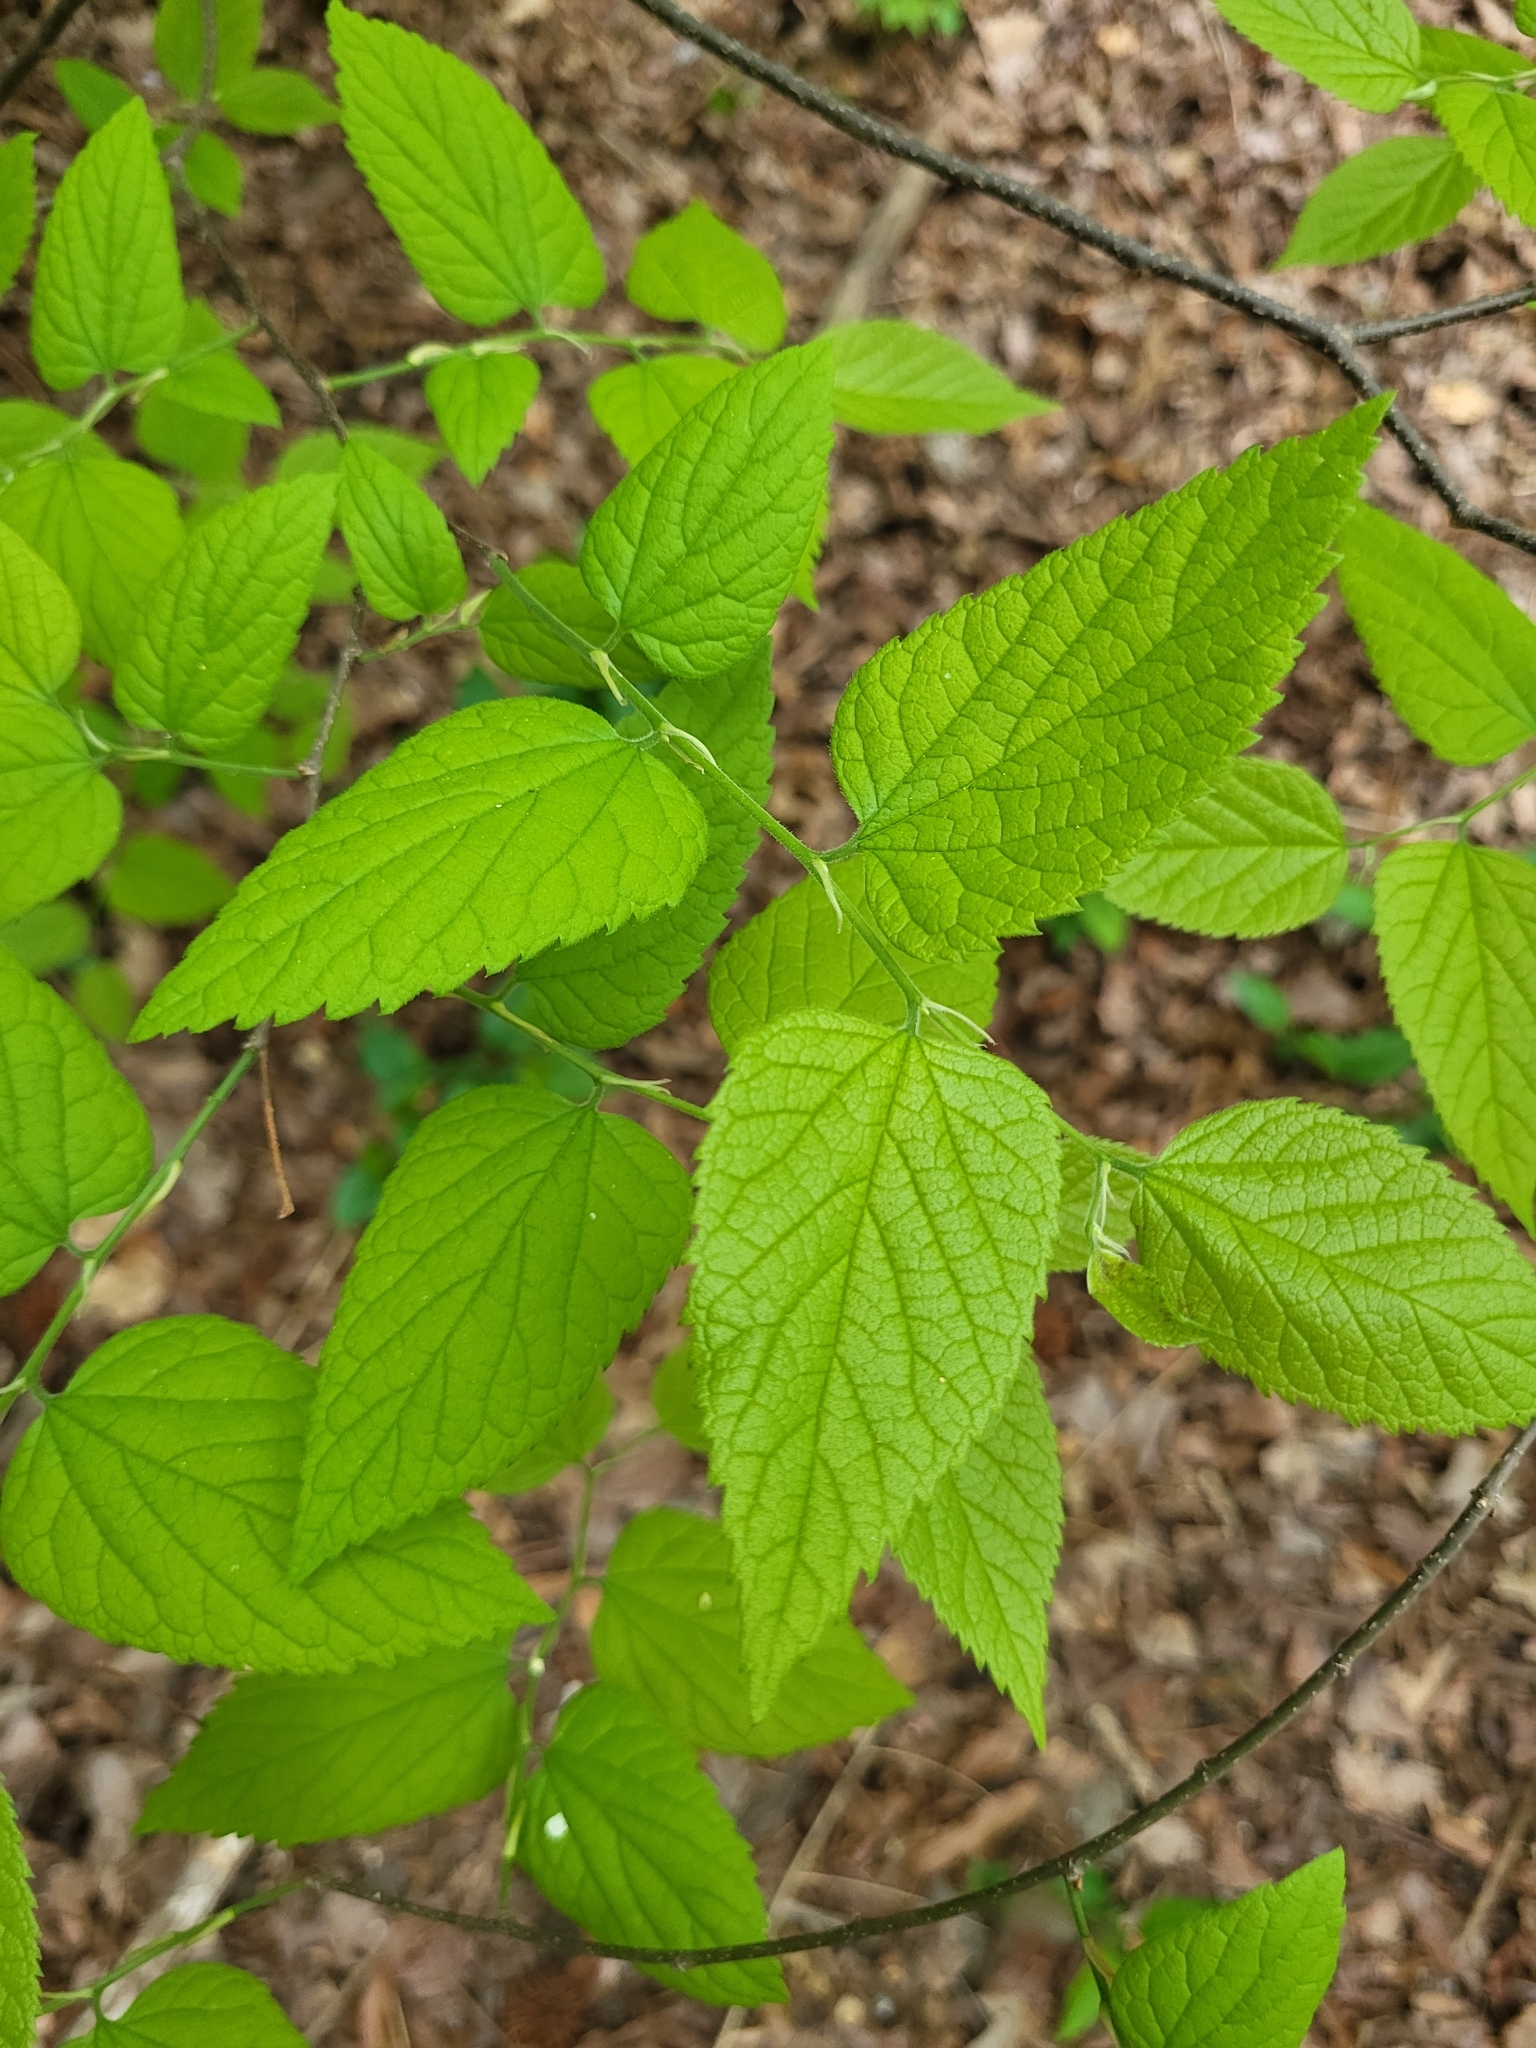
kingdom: Plantae
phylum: Tracheophyta
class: Magnoliopsida
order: Rosales
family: Cannabaceae
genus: Celtis
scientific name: Celtis occidentalis
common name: Common hackberry
